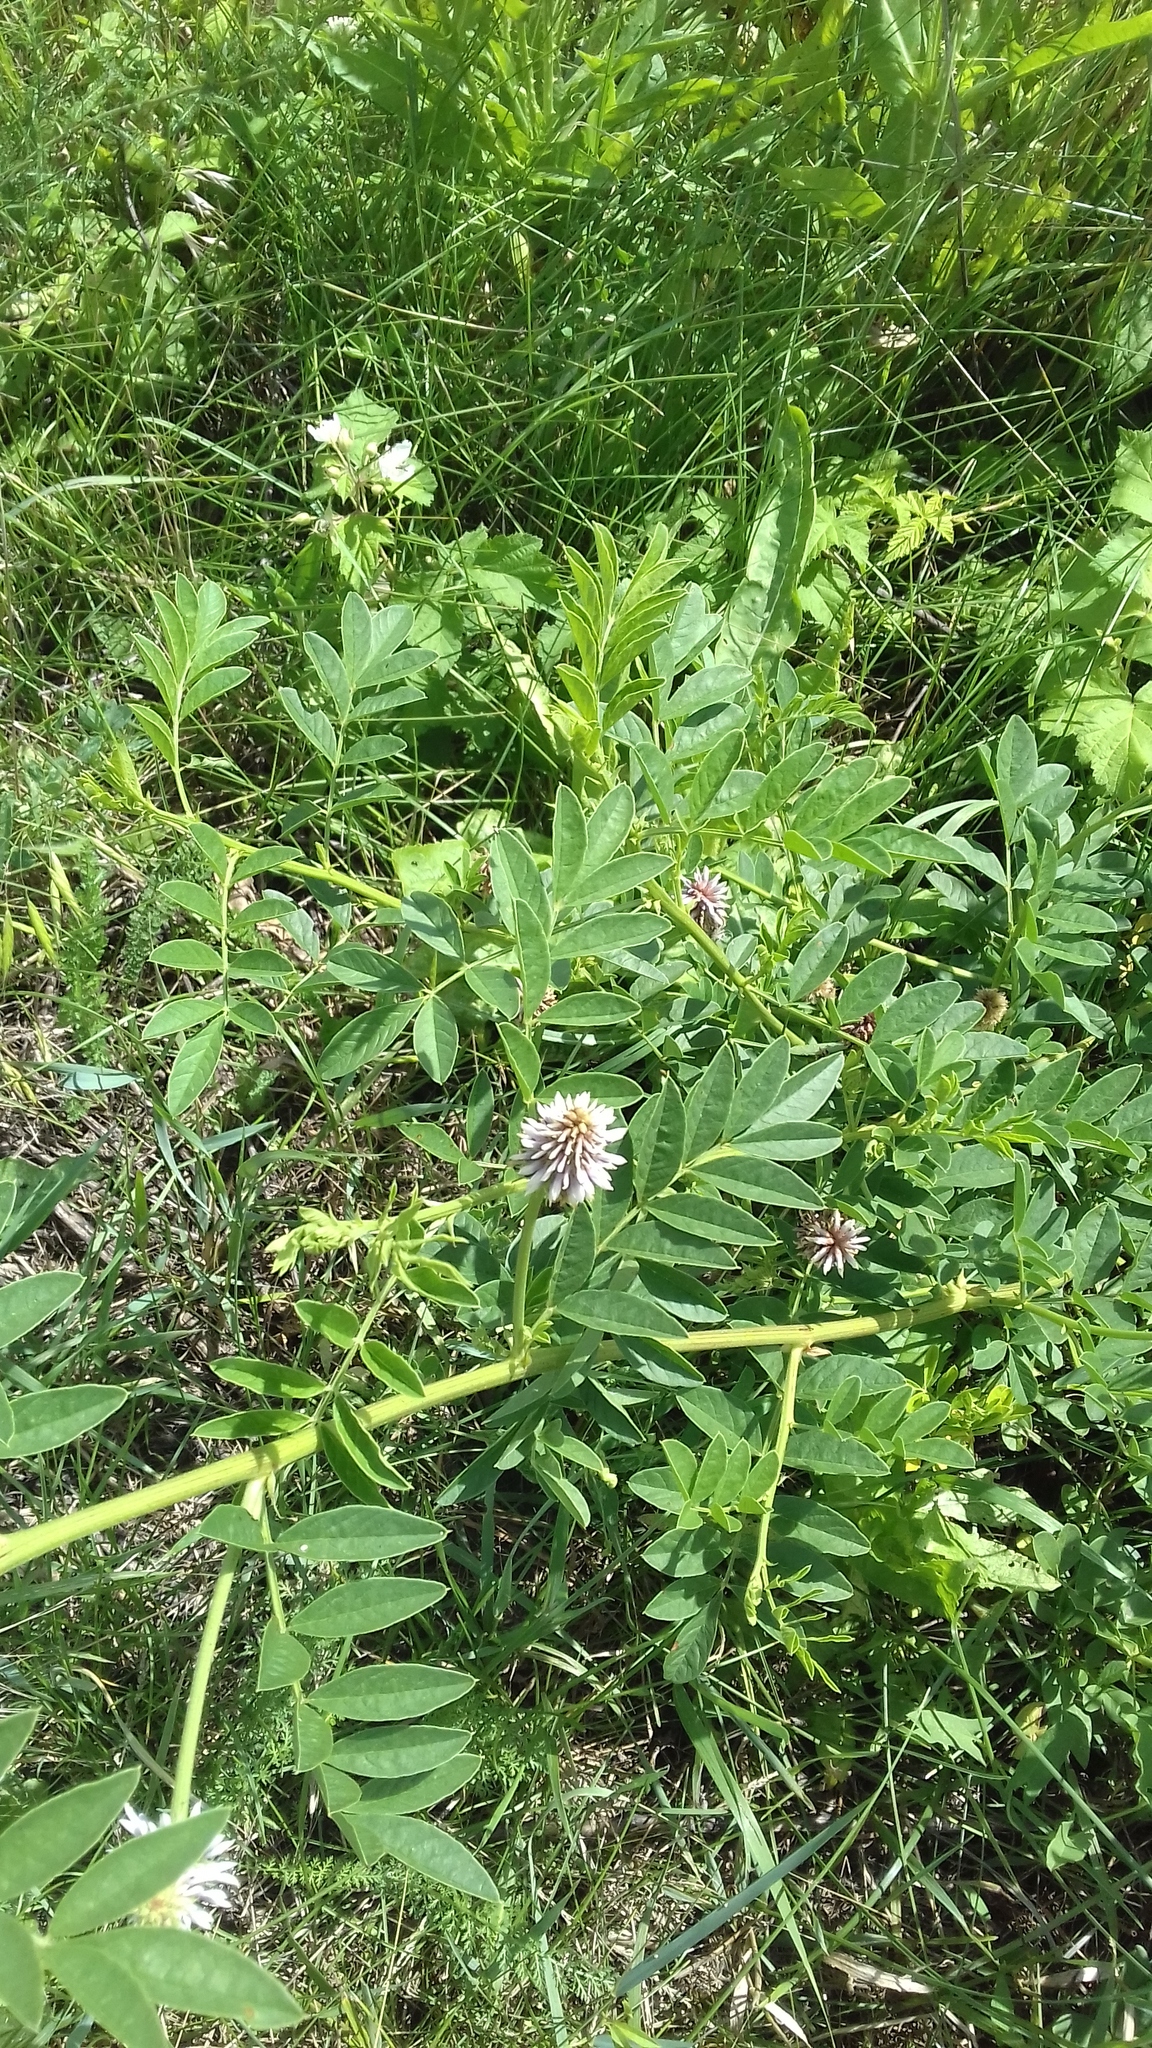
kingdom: Plantae
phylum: Tracheophyta
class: Magnoliopsida
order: Fabales
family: Fabaceae
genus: Glycyrrhiza
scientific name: Glycyrrhiza echinata
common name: German liquorice
